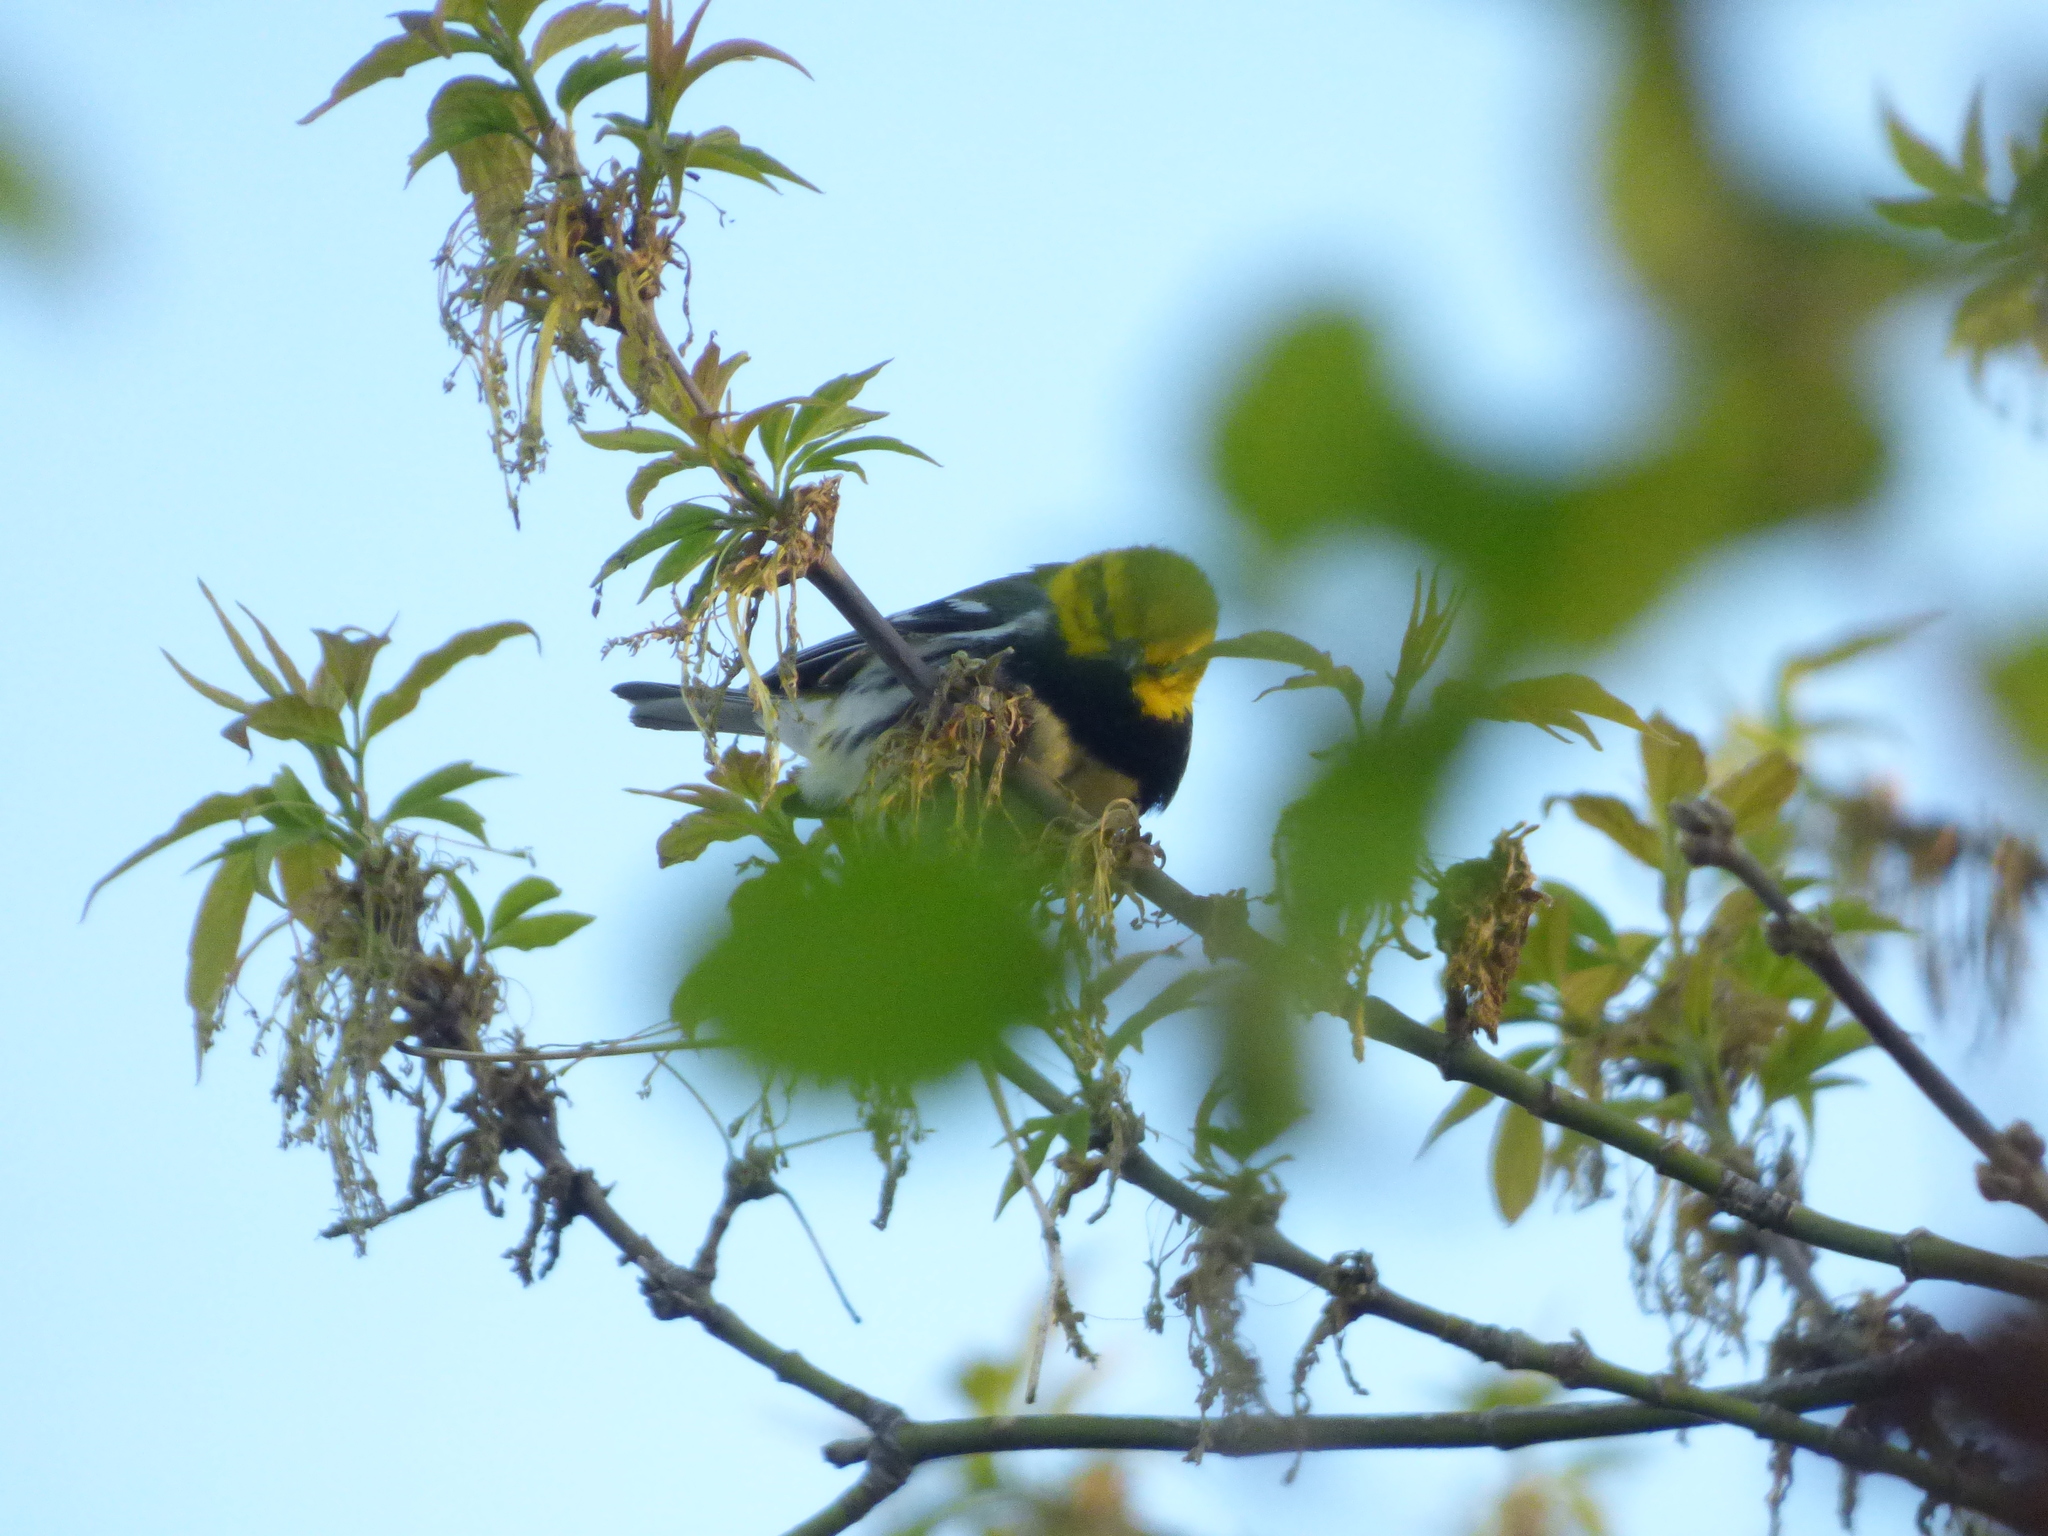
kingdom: Animalia
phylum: Chordata
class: Aves
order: Passeriformes
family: Parulidae
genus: Setophaga
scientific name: Setophaga virens
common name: Black-throated green warbler
